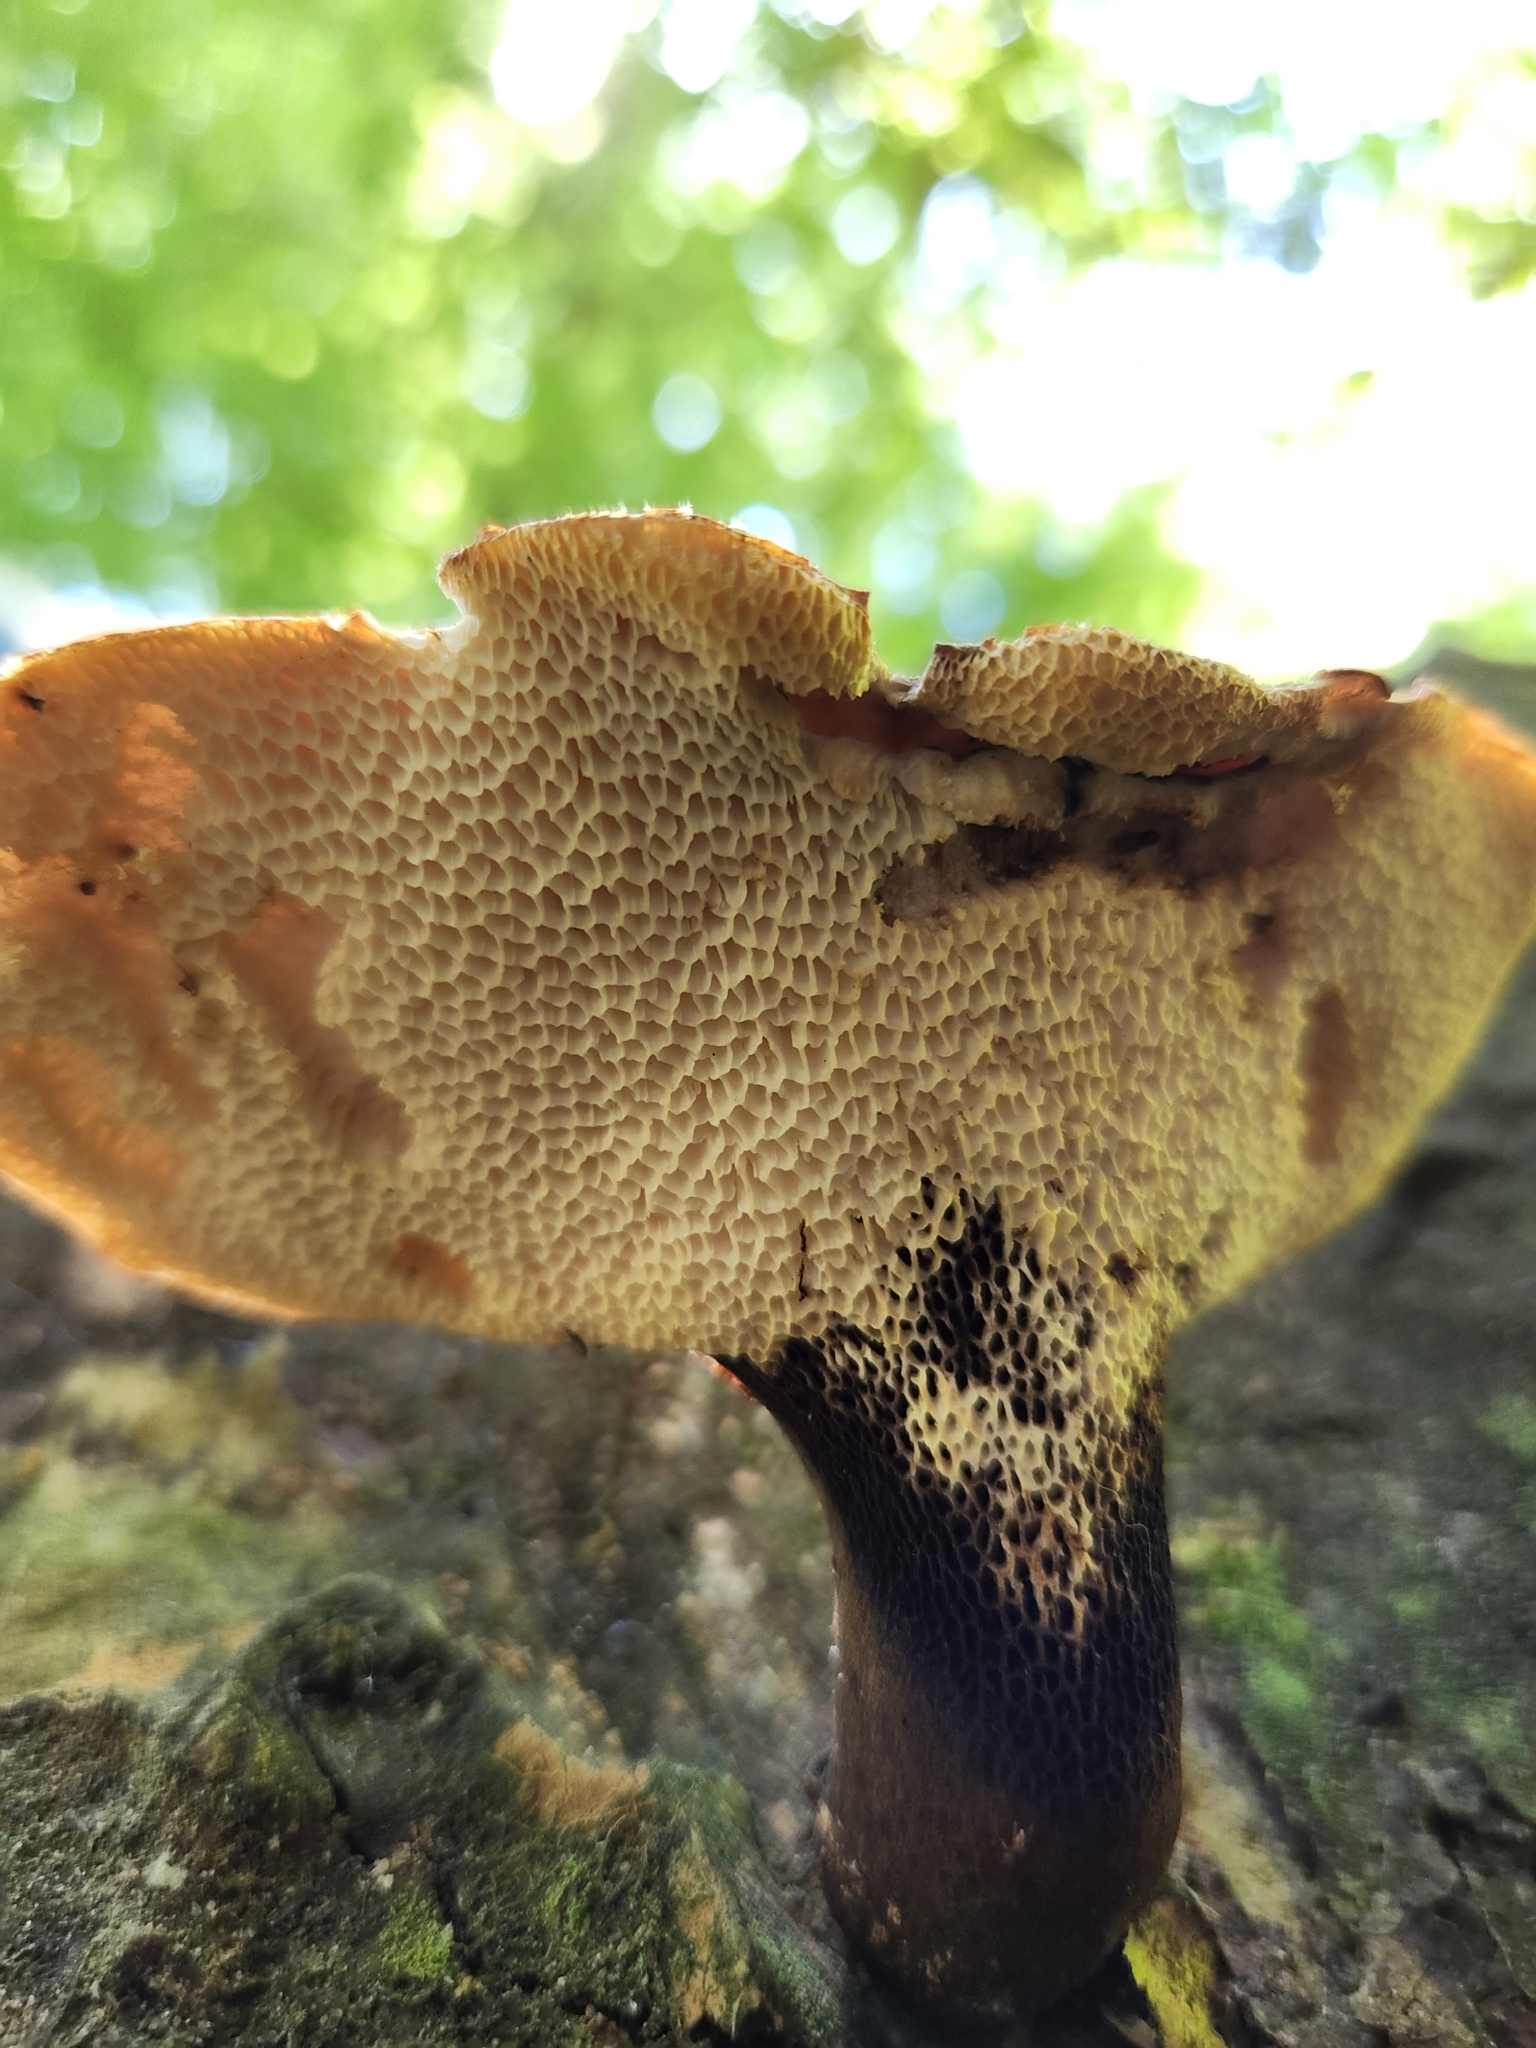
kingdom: Fungi
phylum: Basidiomycota
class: Agaricomycetes
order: Polyporales
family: Polyporaceae
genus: Cerioporus
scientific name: Cerioporus squamosus
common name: Dryad's saddle
